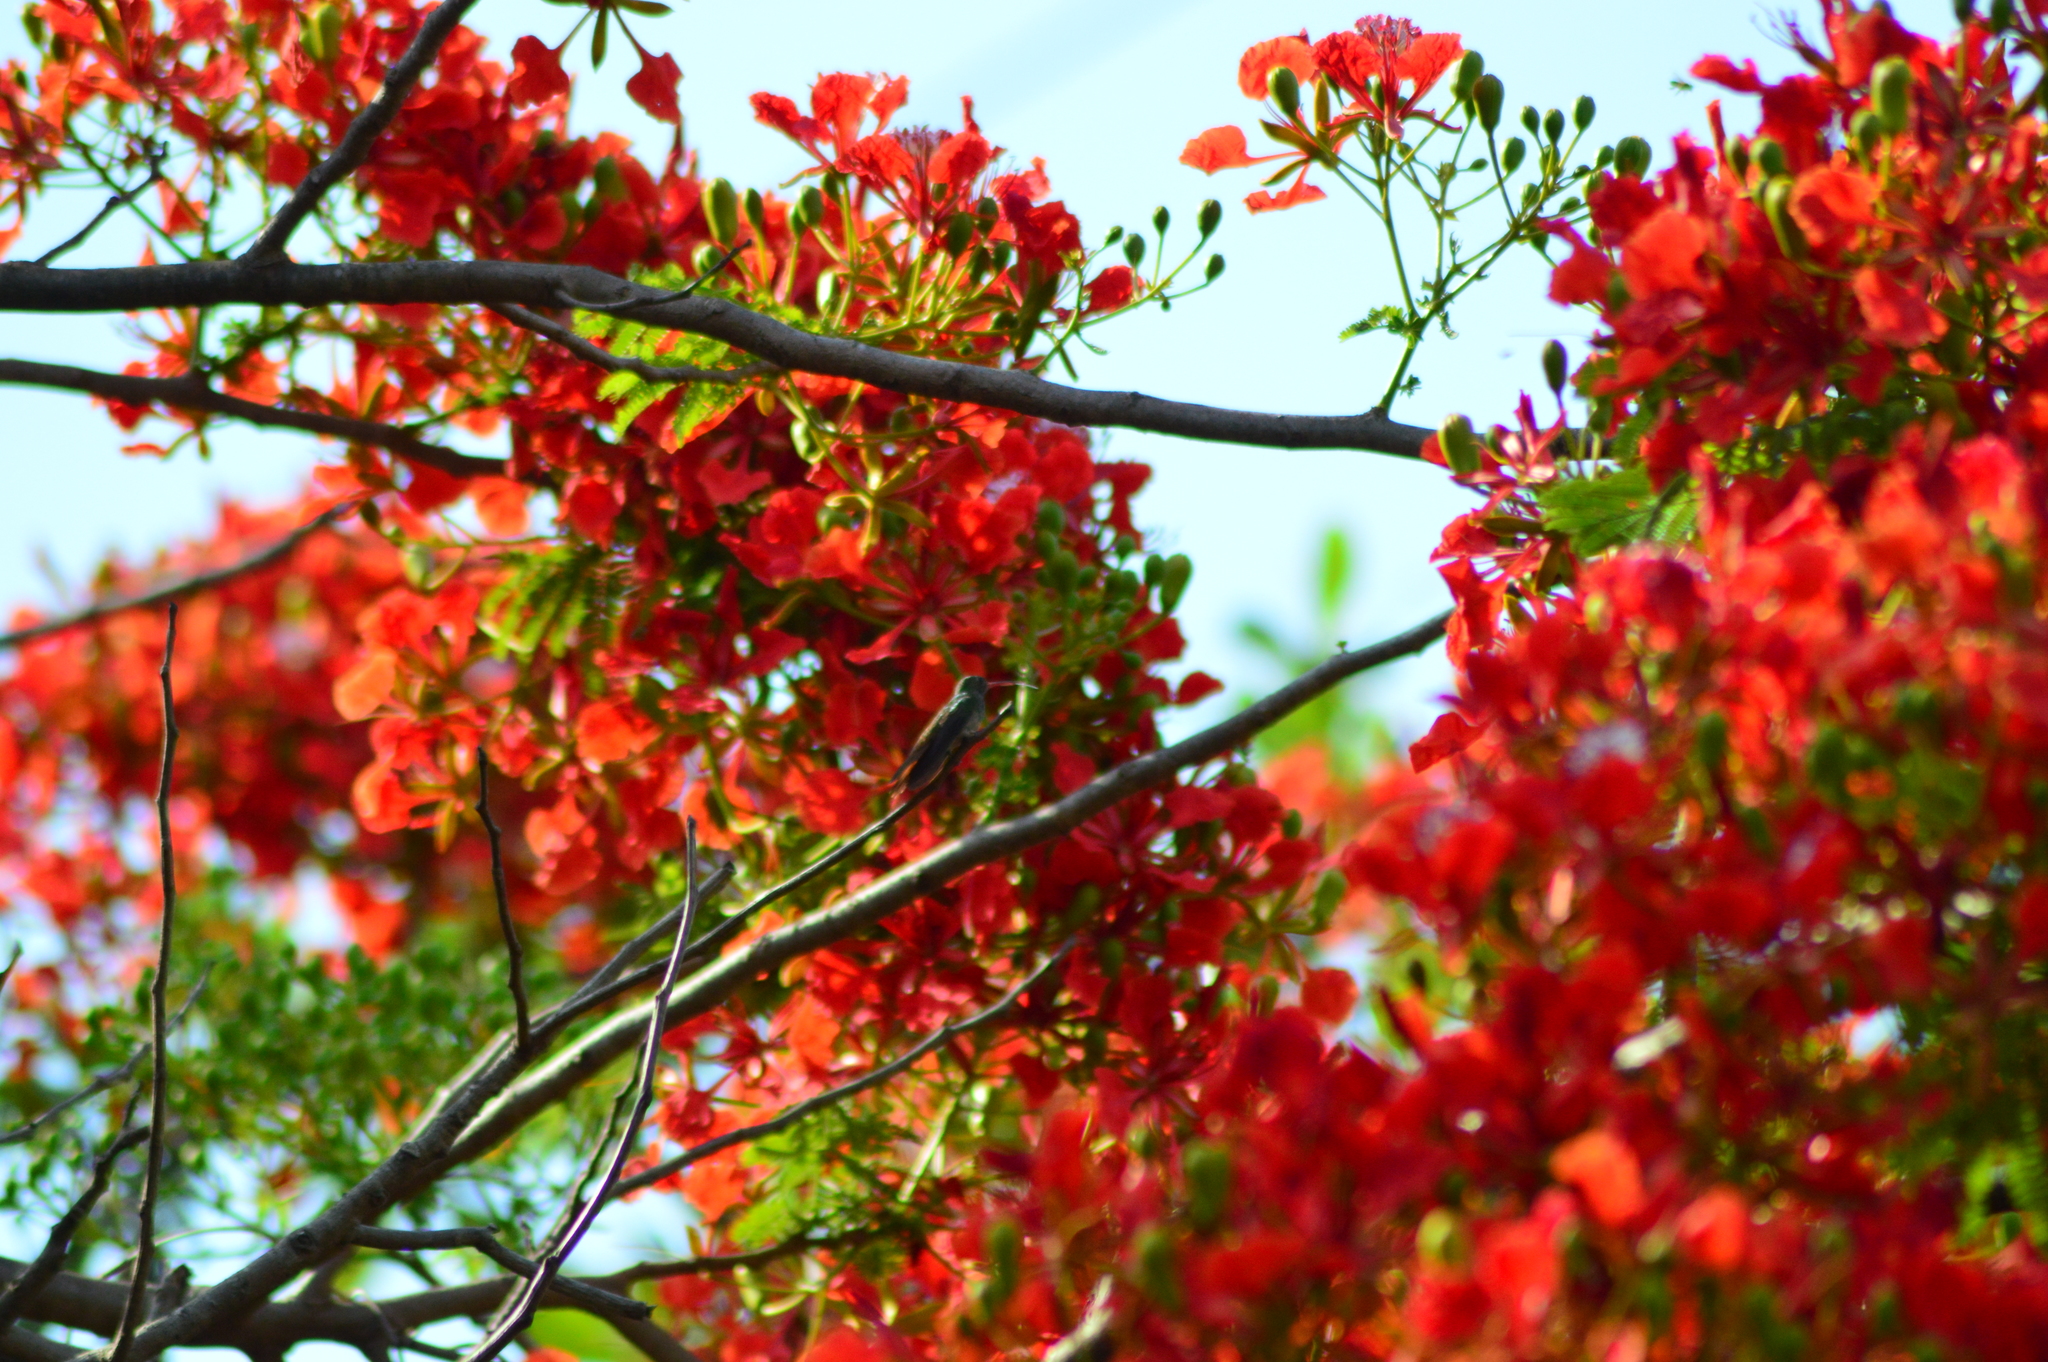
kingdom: Animalia
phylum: Chordata
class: Aves
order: Apodiformes
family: Trochilidae
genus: Amazilia
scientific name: Amazilia yucatanensis
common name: Buff-bellied hummingbird
